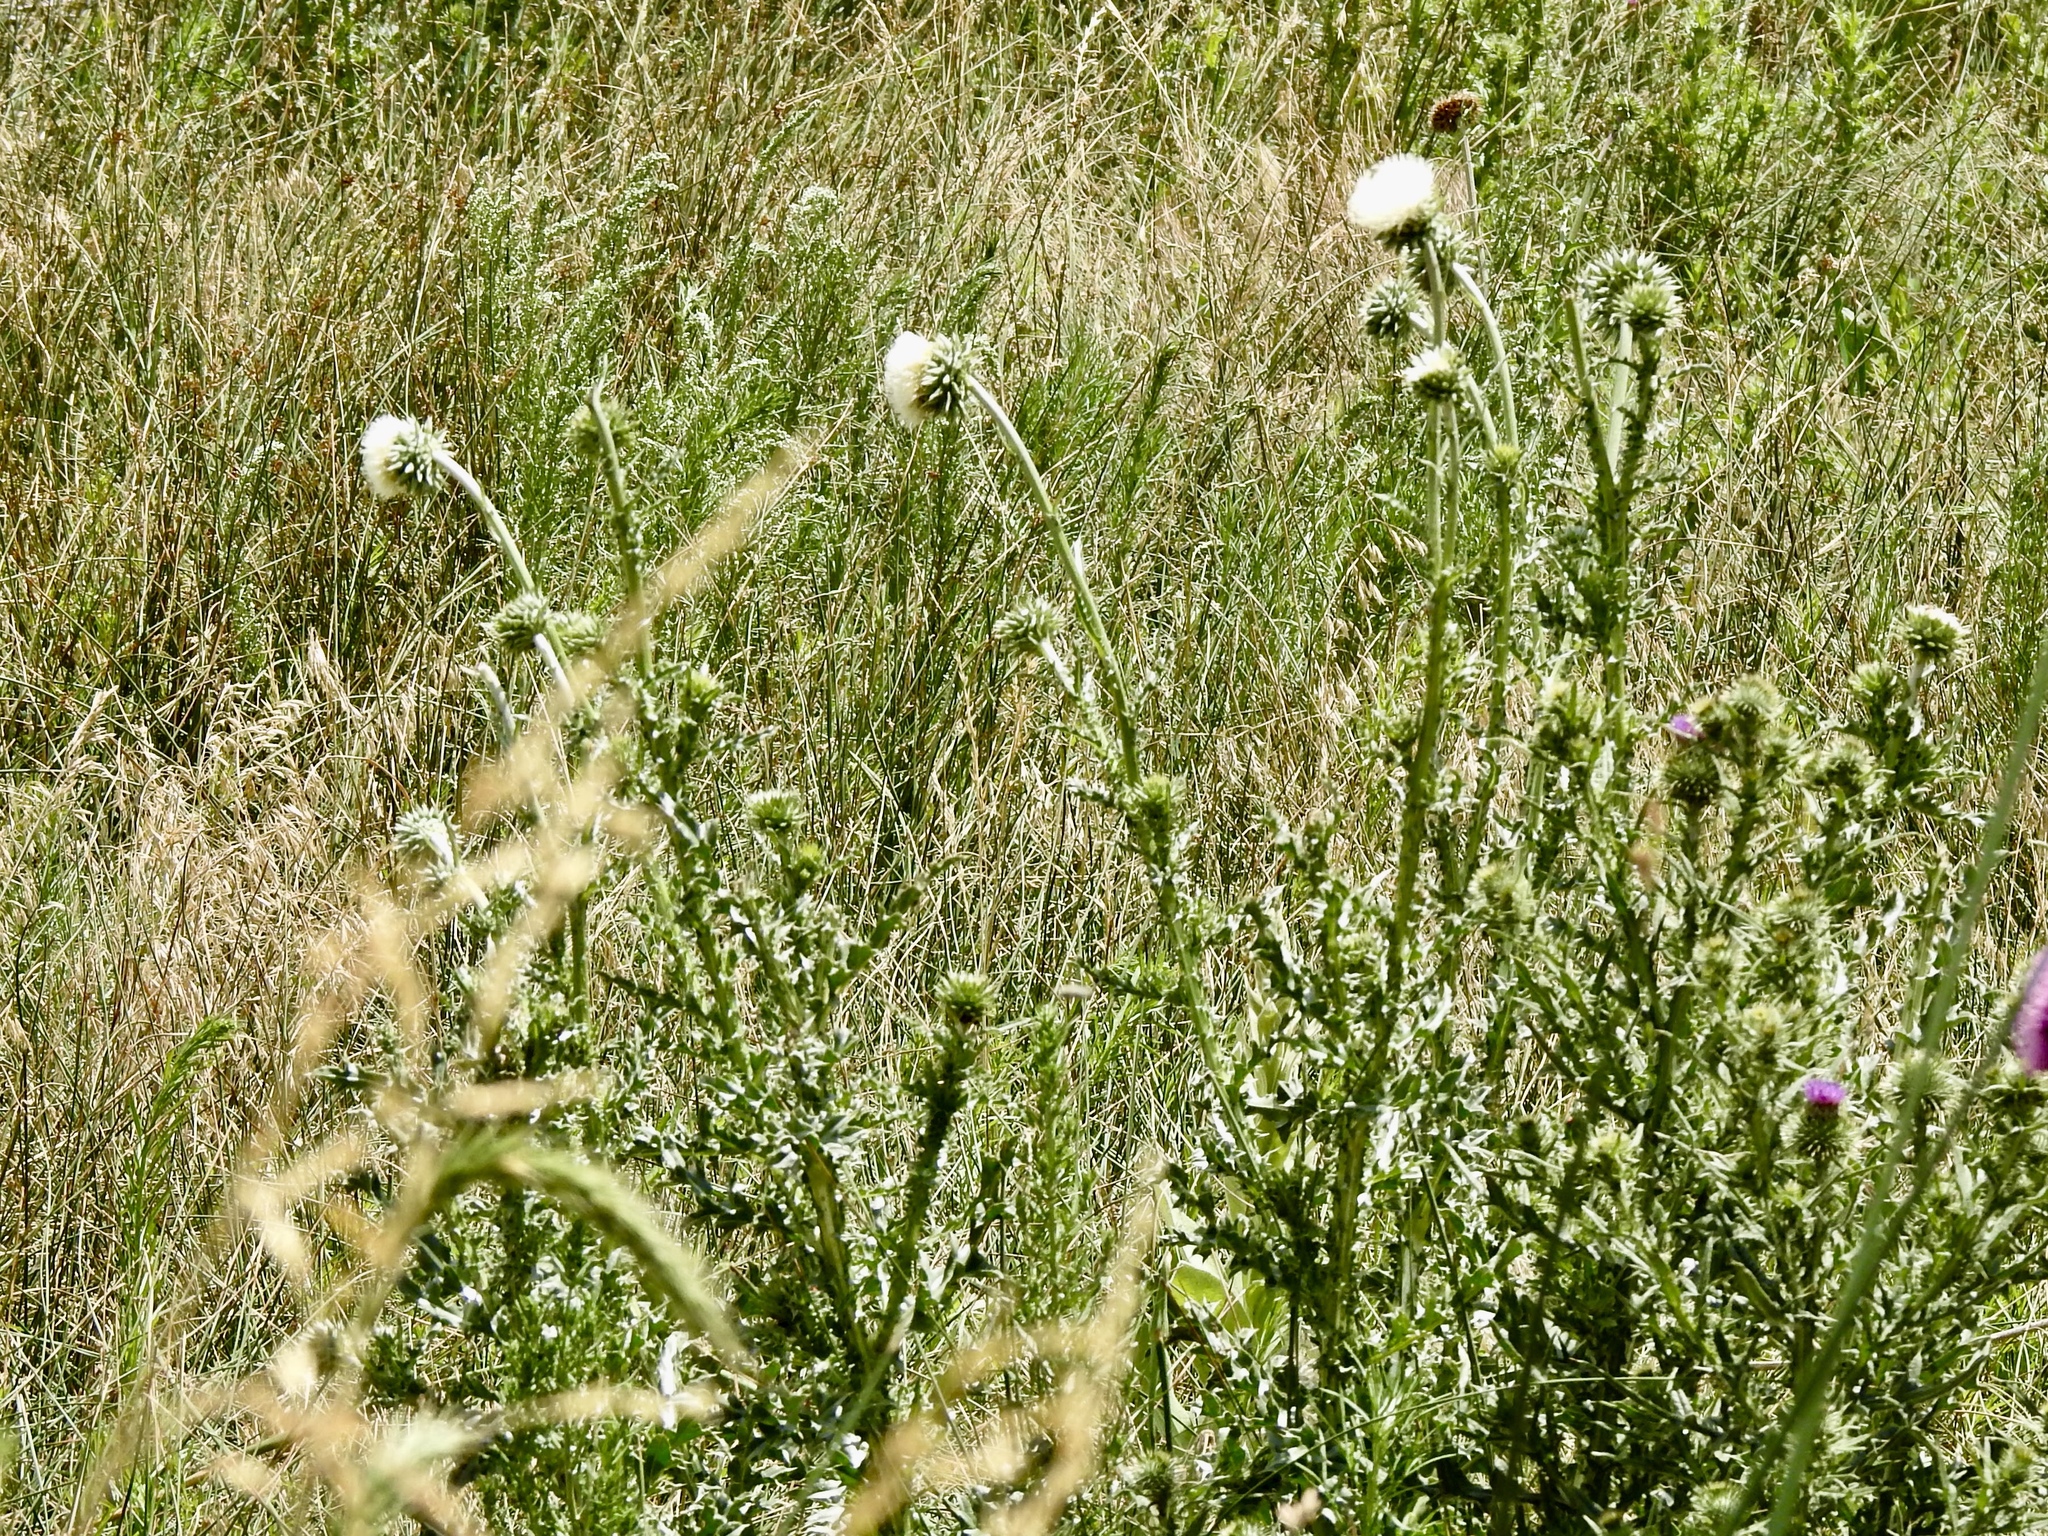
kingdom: Plantae
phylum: Tracheophyta
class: Magnoliopsida
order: Asterales
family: Asteraceae
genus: Carduus
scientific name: Carduus nutans
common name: Musk thistle
